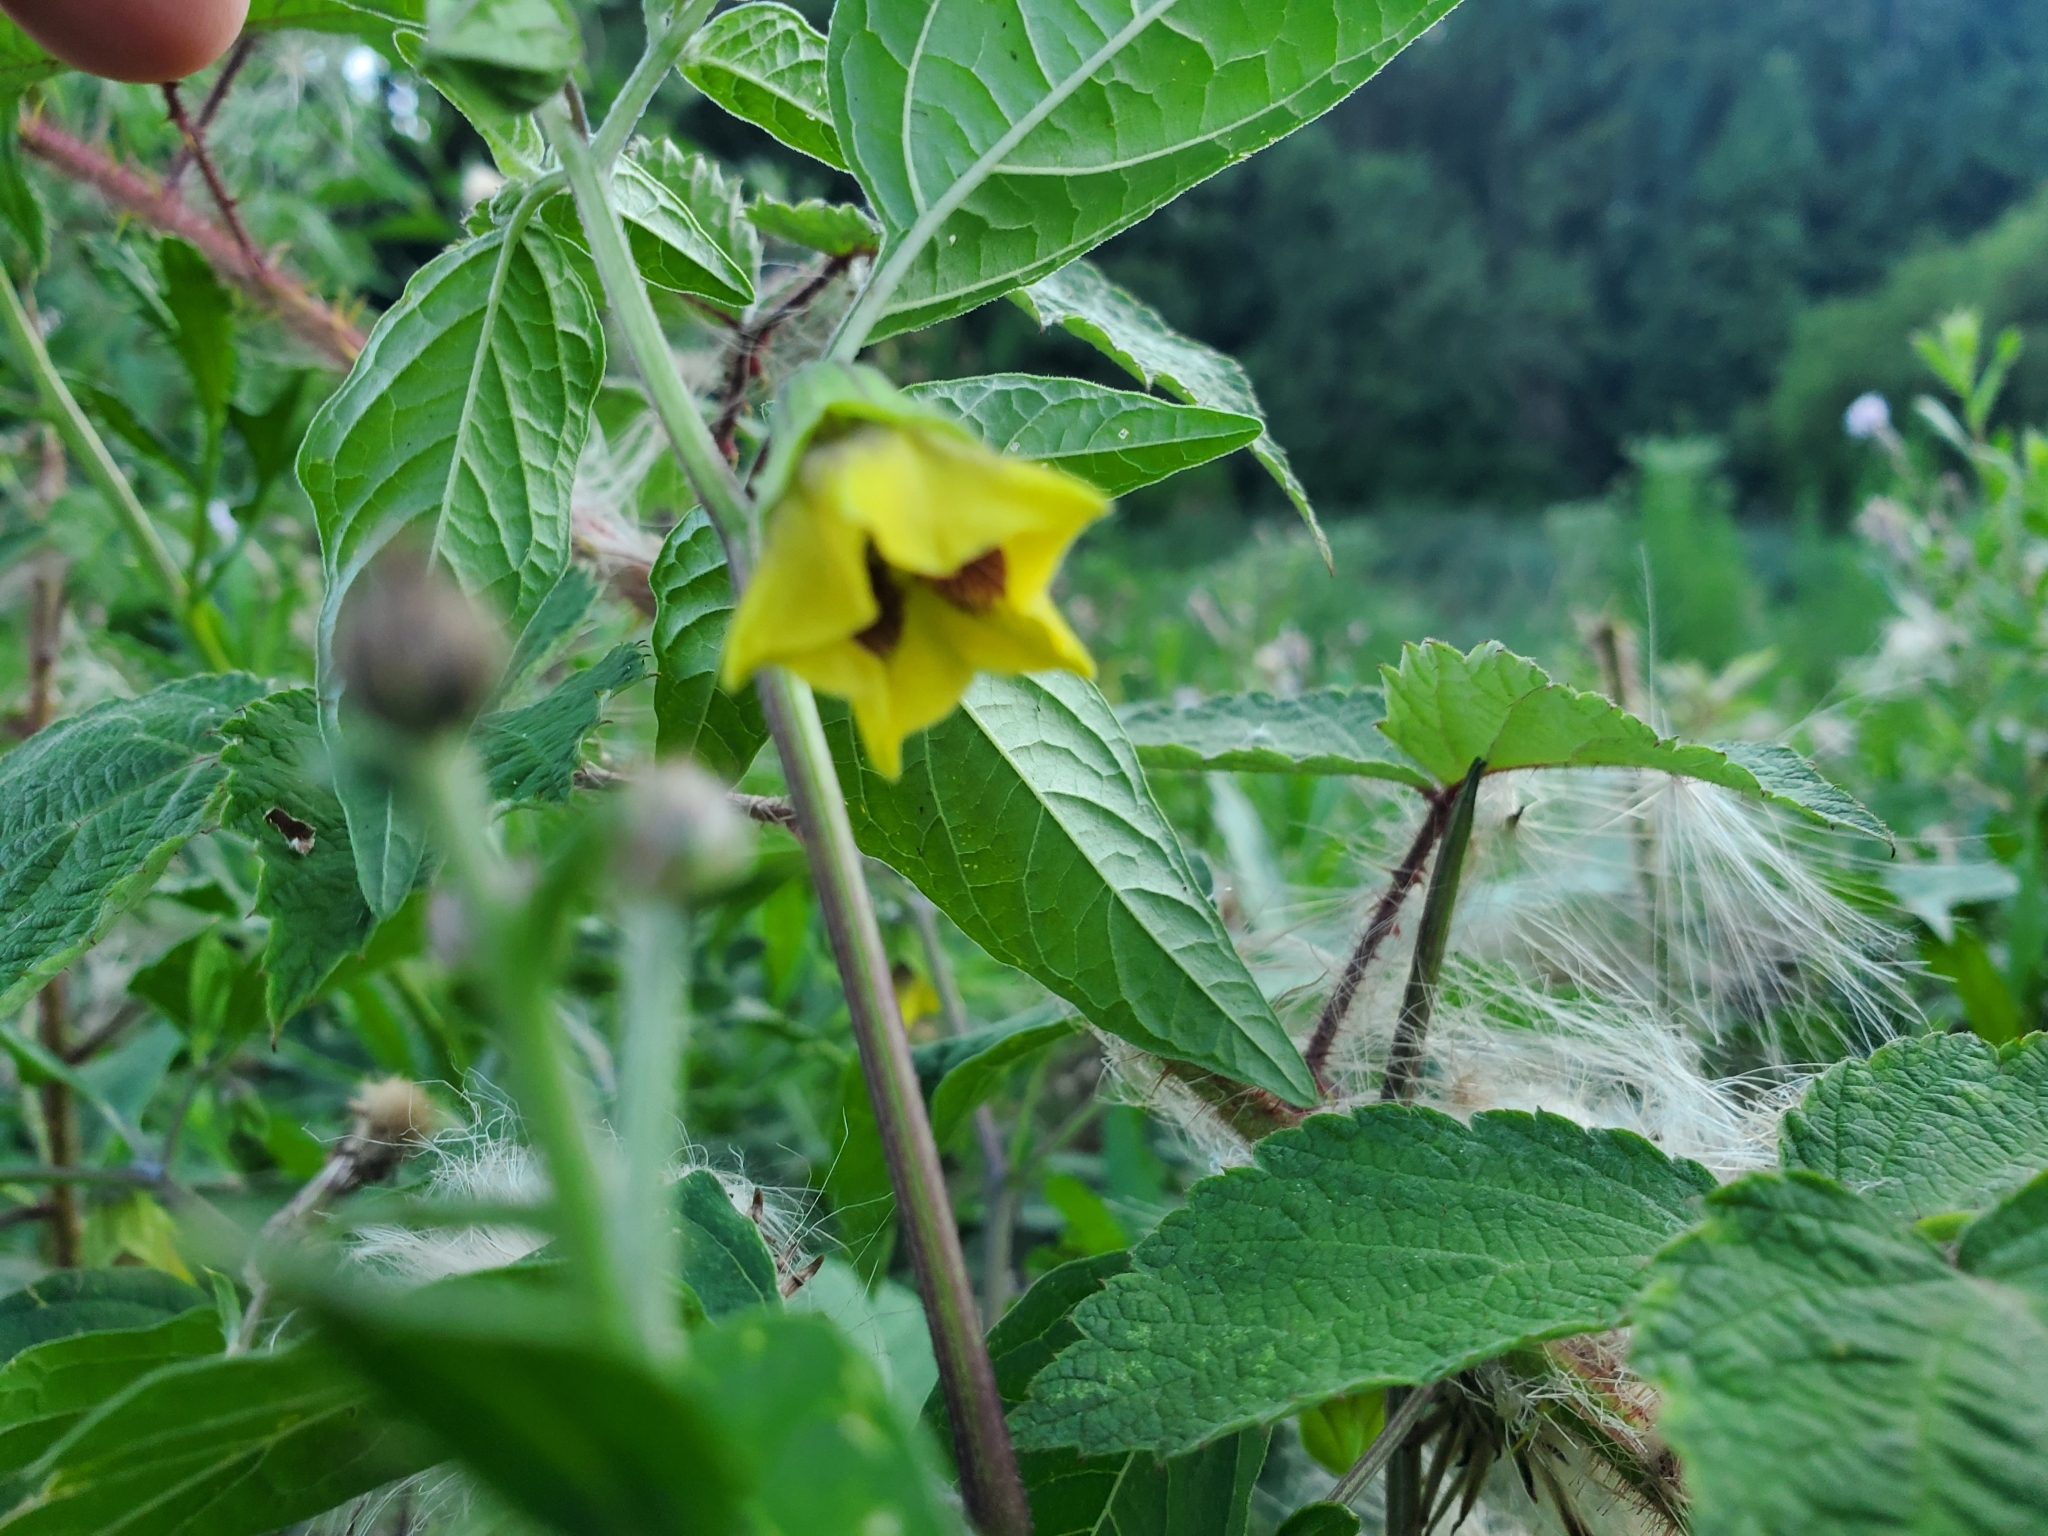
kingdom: Plantae
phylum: Tracheophyta
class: Magnoliopsida
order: Solanales
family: Solanaceae
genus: Physalis
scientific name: Physalis longifolia
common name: Common ground-cherry
